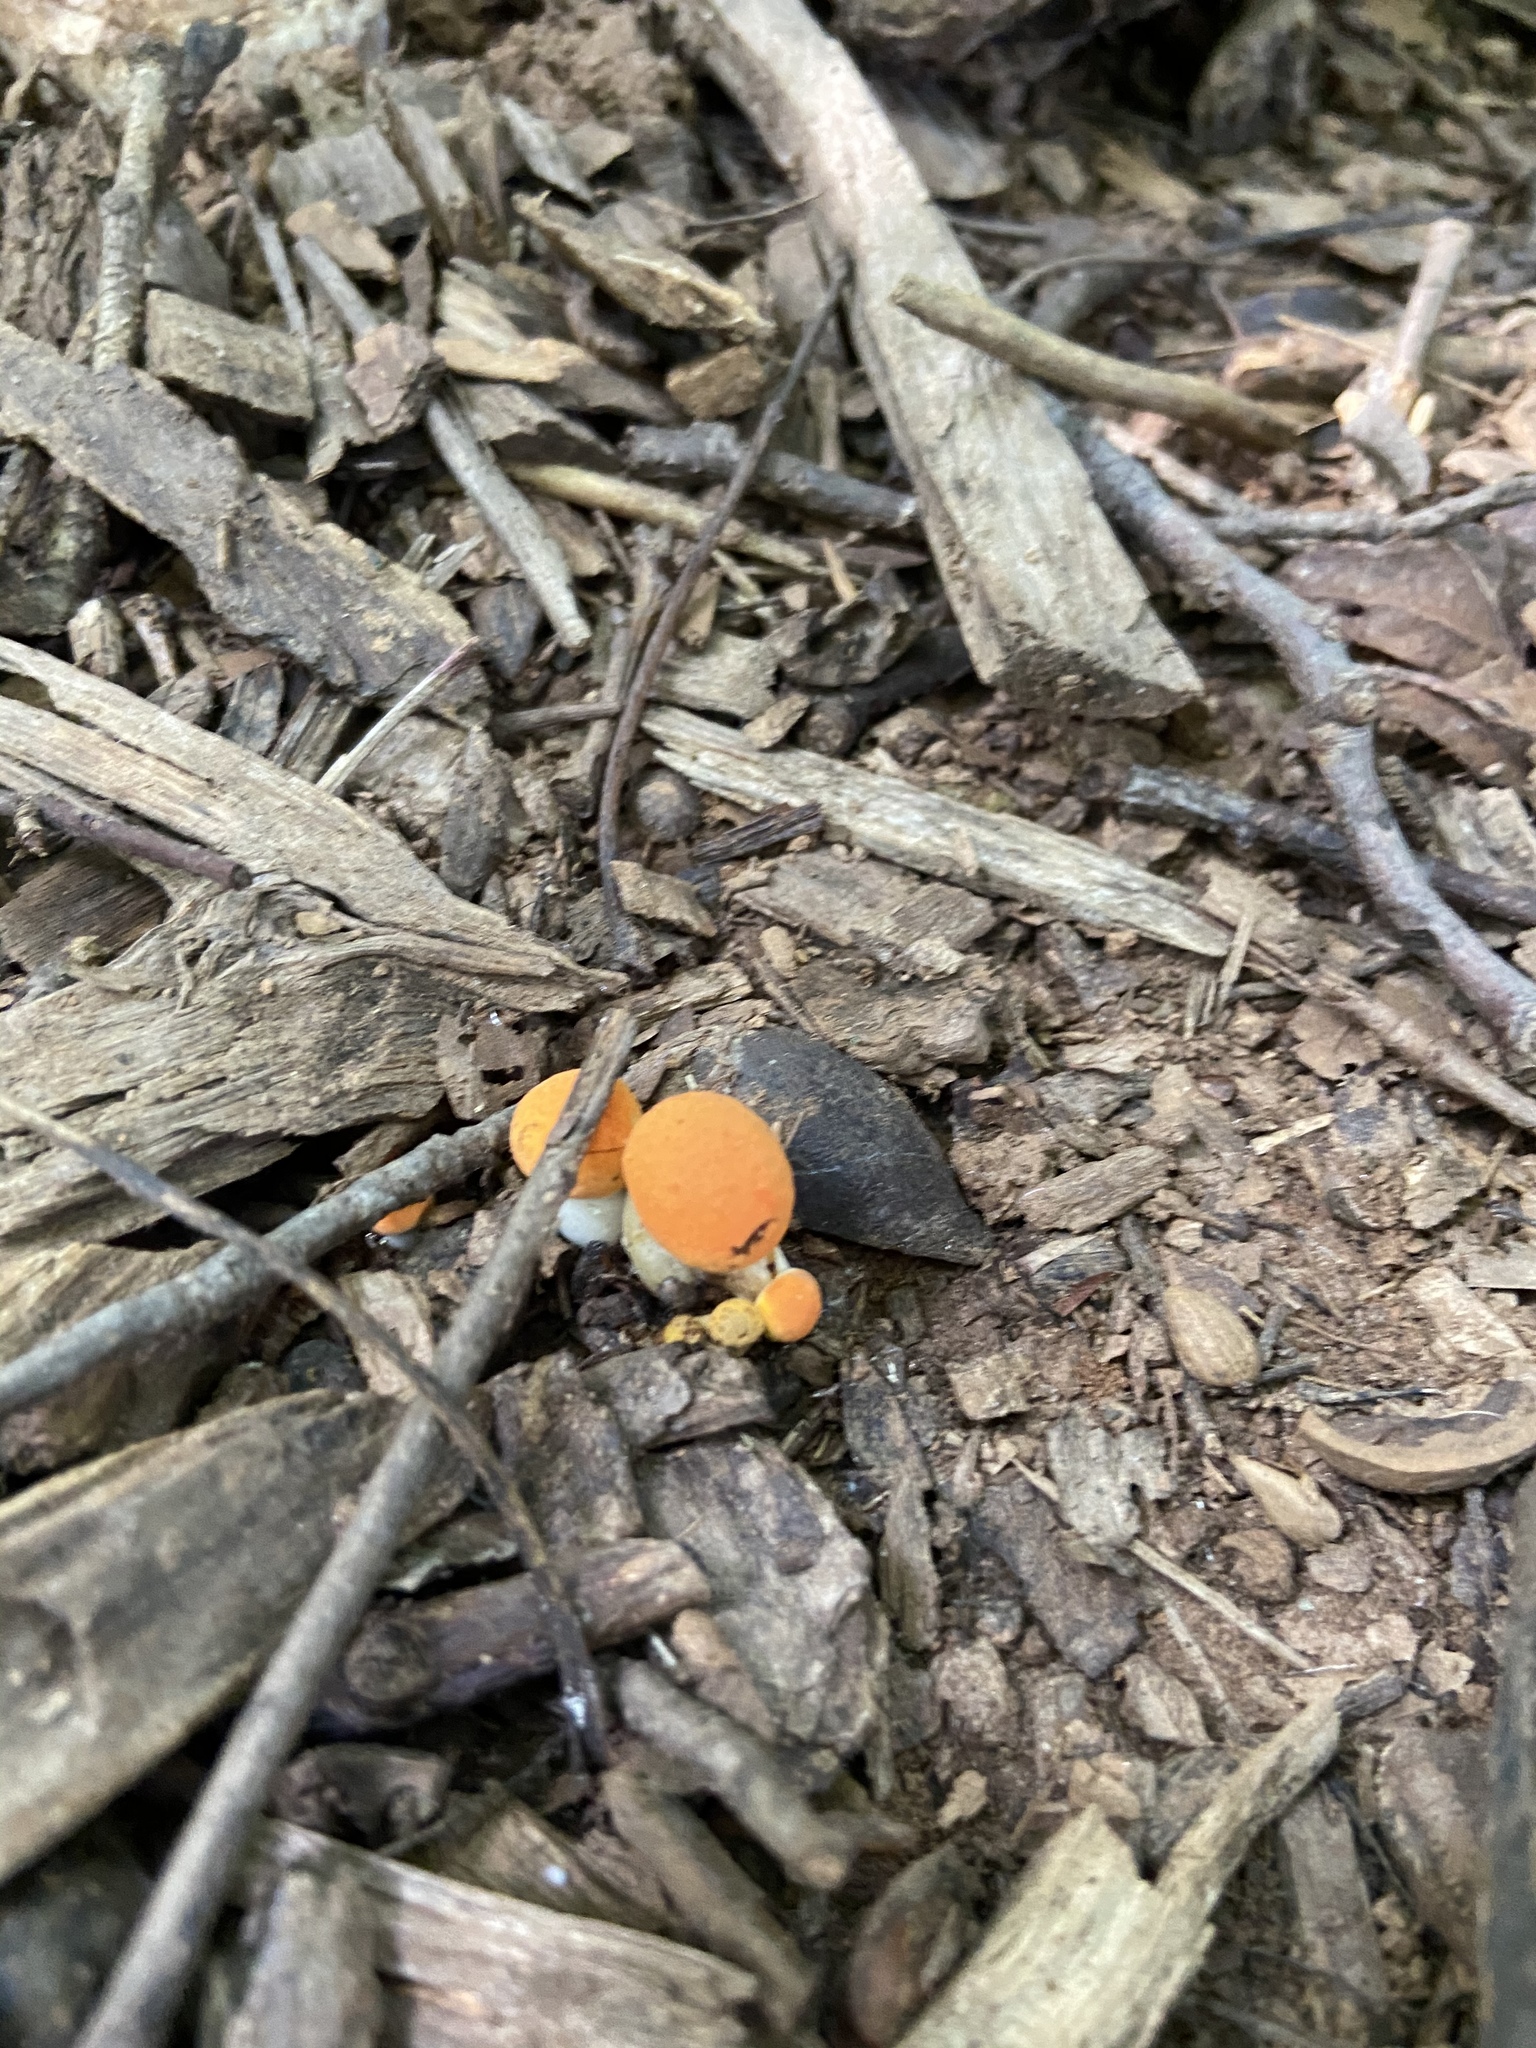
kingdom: Fungi
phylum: Basidiomycota
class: Agaricomycetes
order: Boletales
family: Boletaceae
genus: Tylopilus
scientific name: Tylopilus balloui
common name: Burnt-orange bolete
